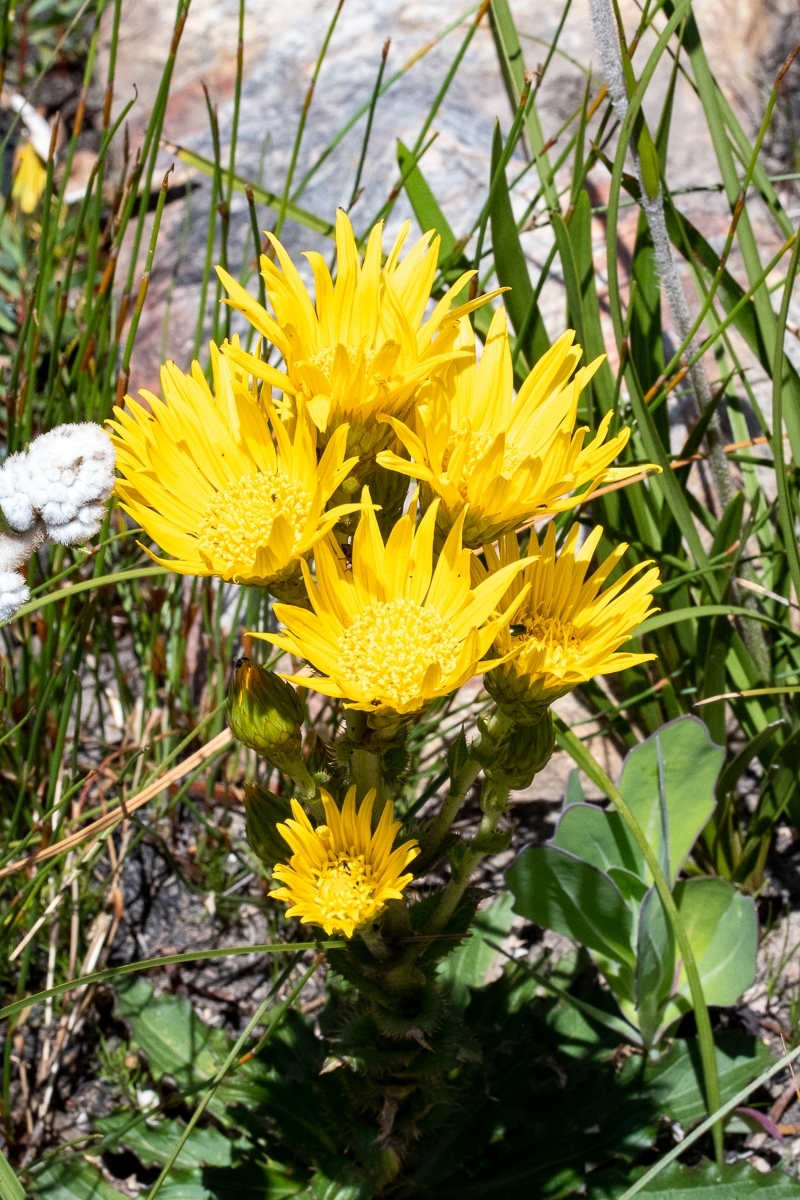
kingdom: Plantae
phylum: Tracheophyta
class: Magnoliopsida
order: Asterales
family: Asteraceae
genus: Berkheya
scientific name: Berkheya herbacea
